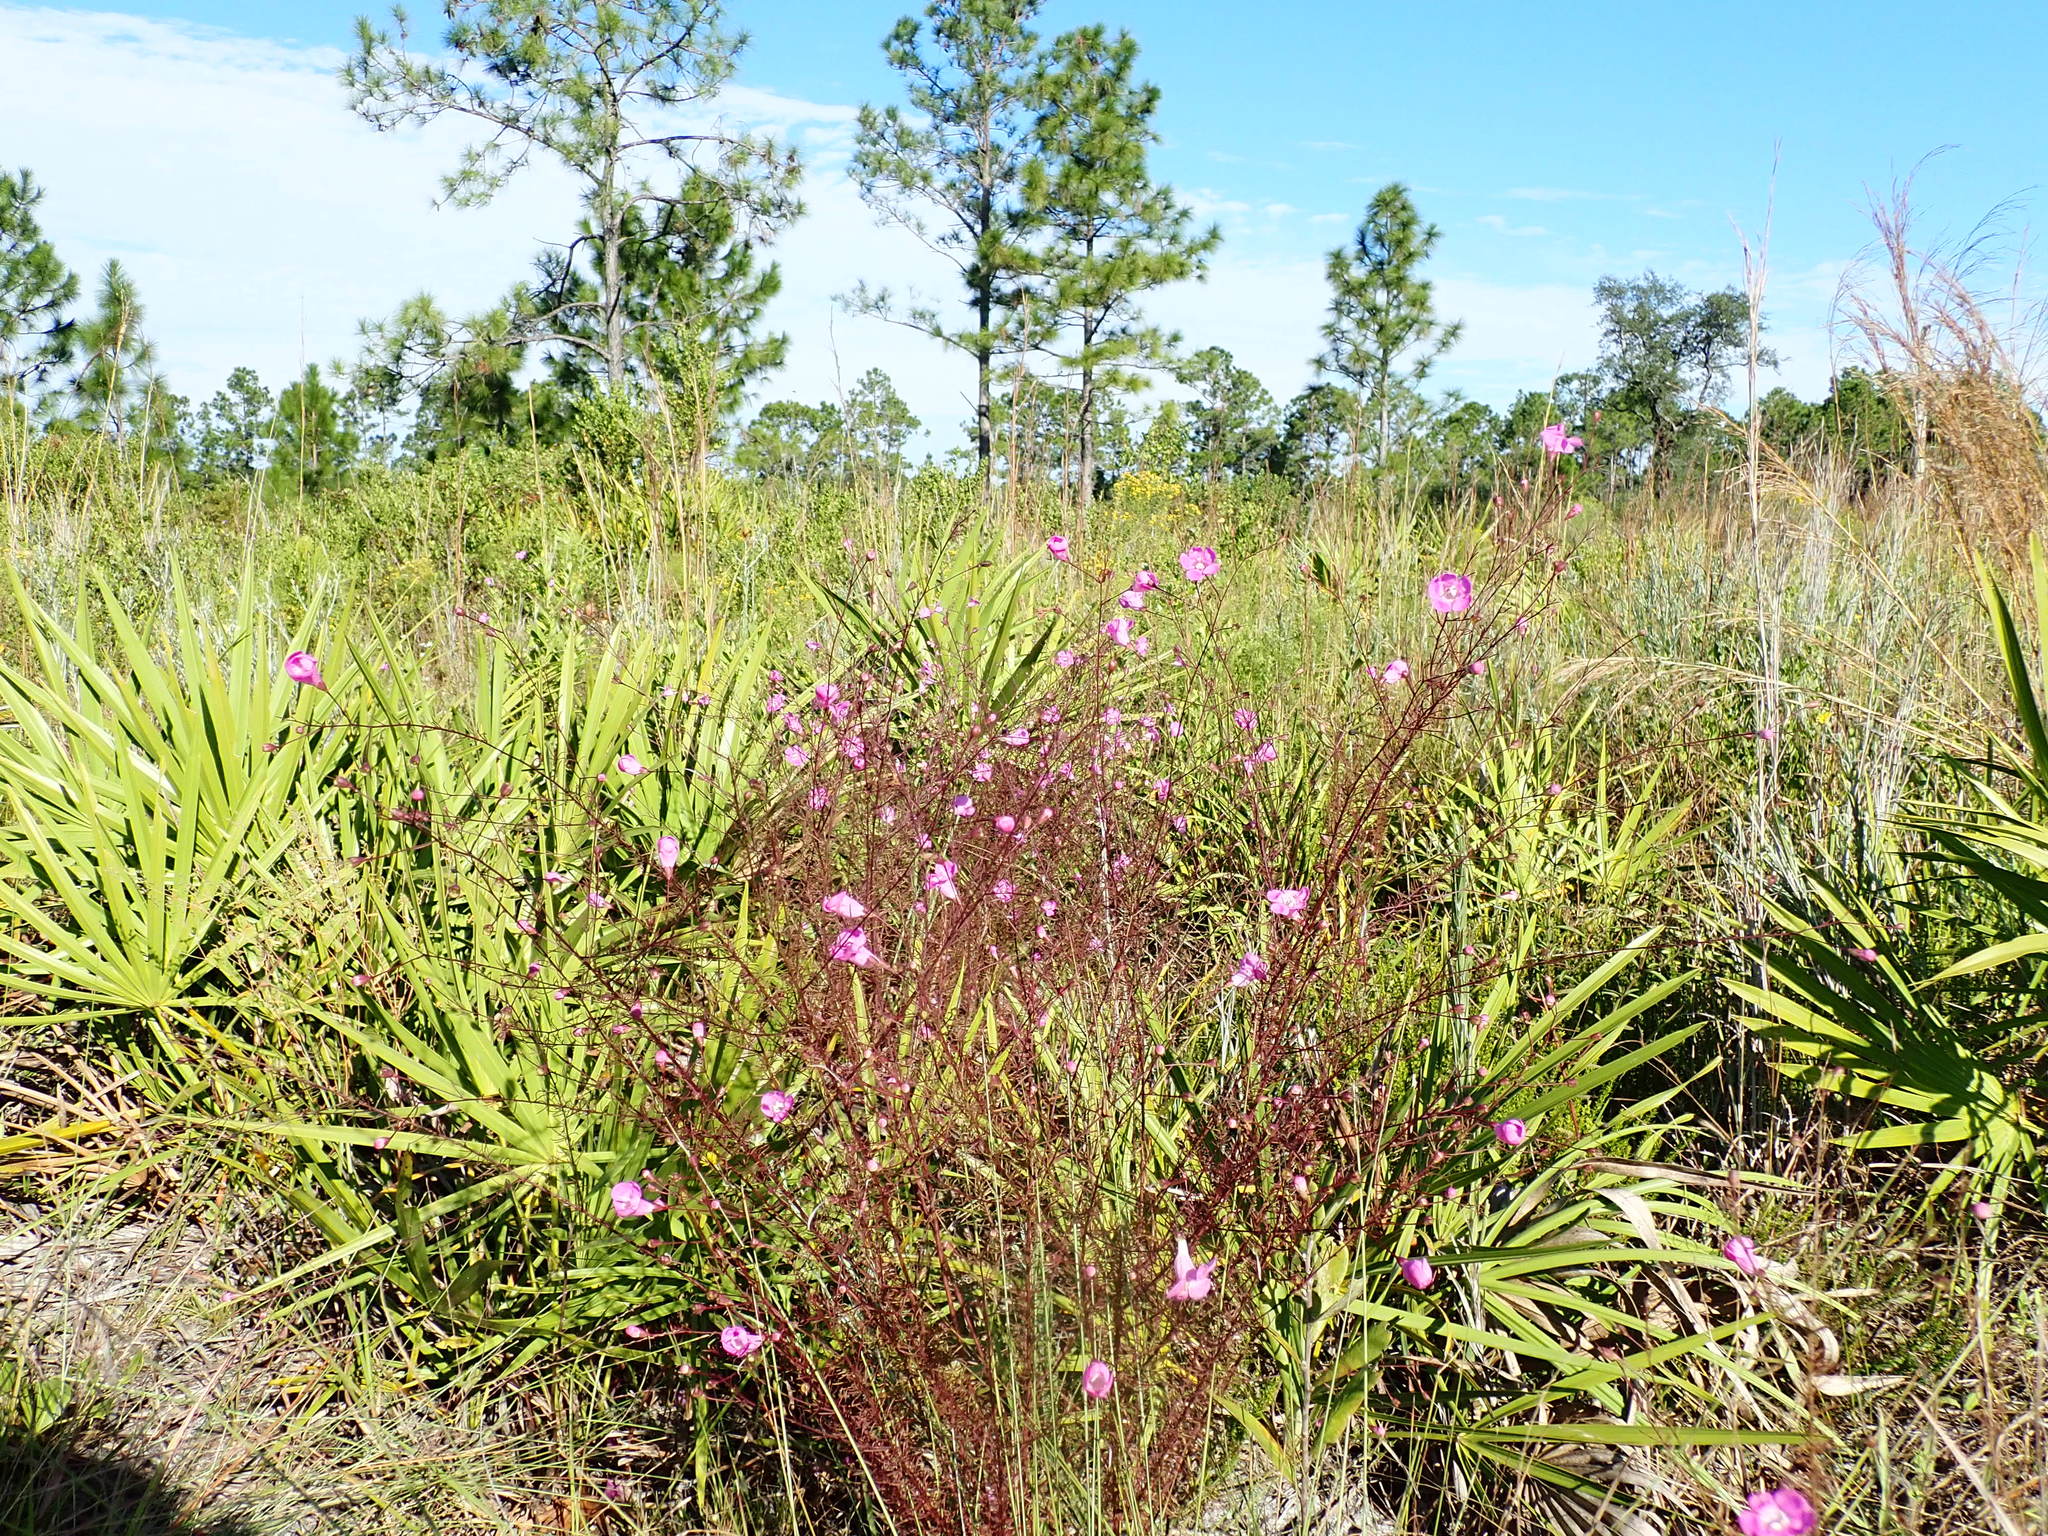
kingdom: Plantae
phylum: Tracheophyta
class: Magnoliopsida
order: Lamiales
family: Orobanchaceae
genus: Agalinis
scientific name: Agalinis filifolia
